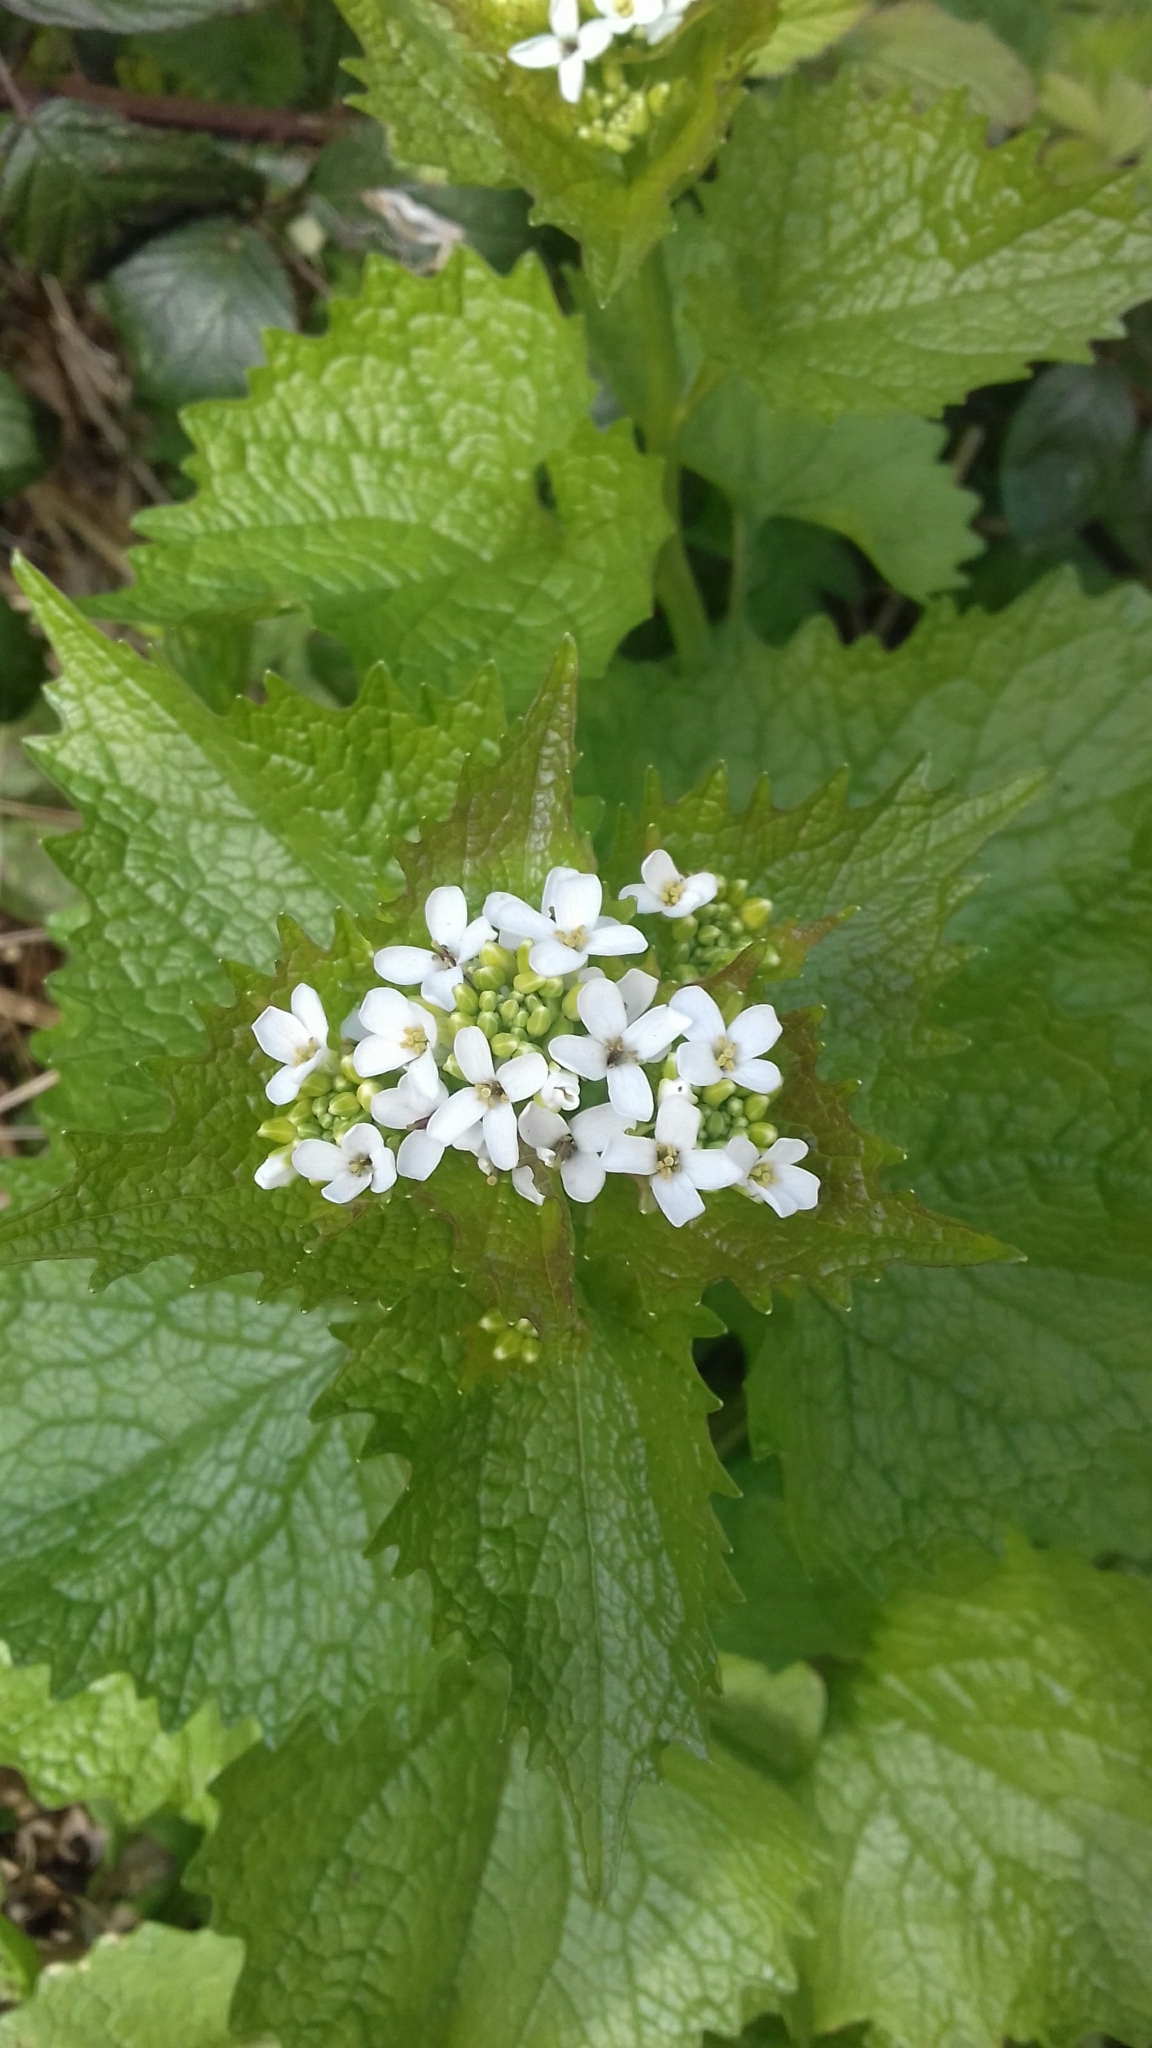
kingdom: Plantae
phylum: Tracheophyta
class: Magnoliopsida
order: Brassicales
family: Brassicaceae
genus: Alliaria
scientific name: Alliaria petiolata
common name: Garlic mustard
